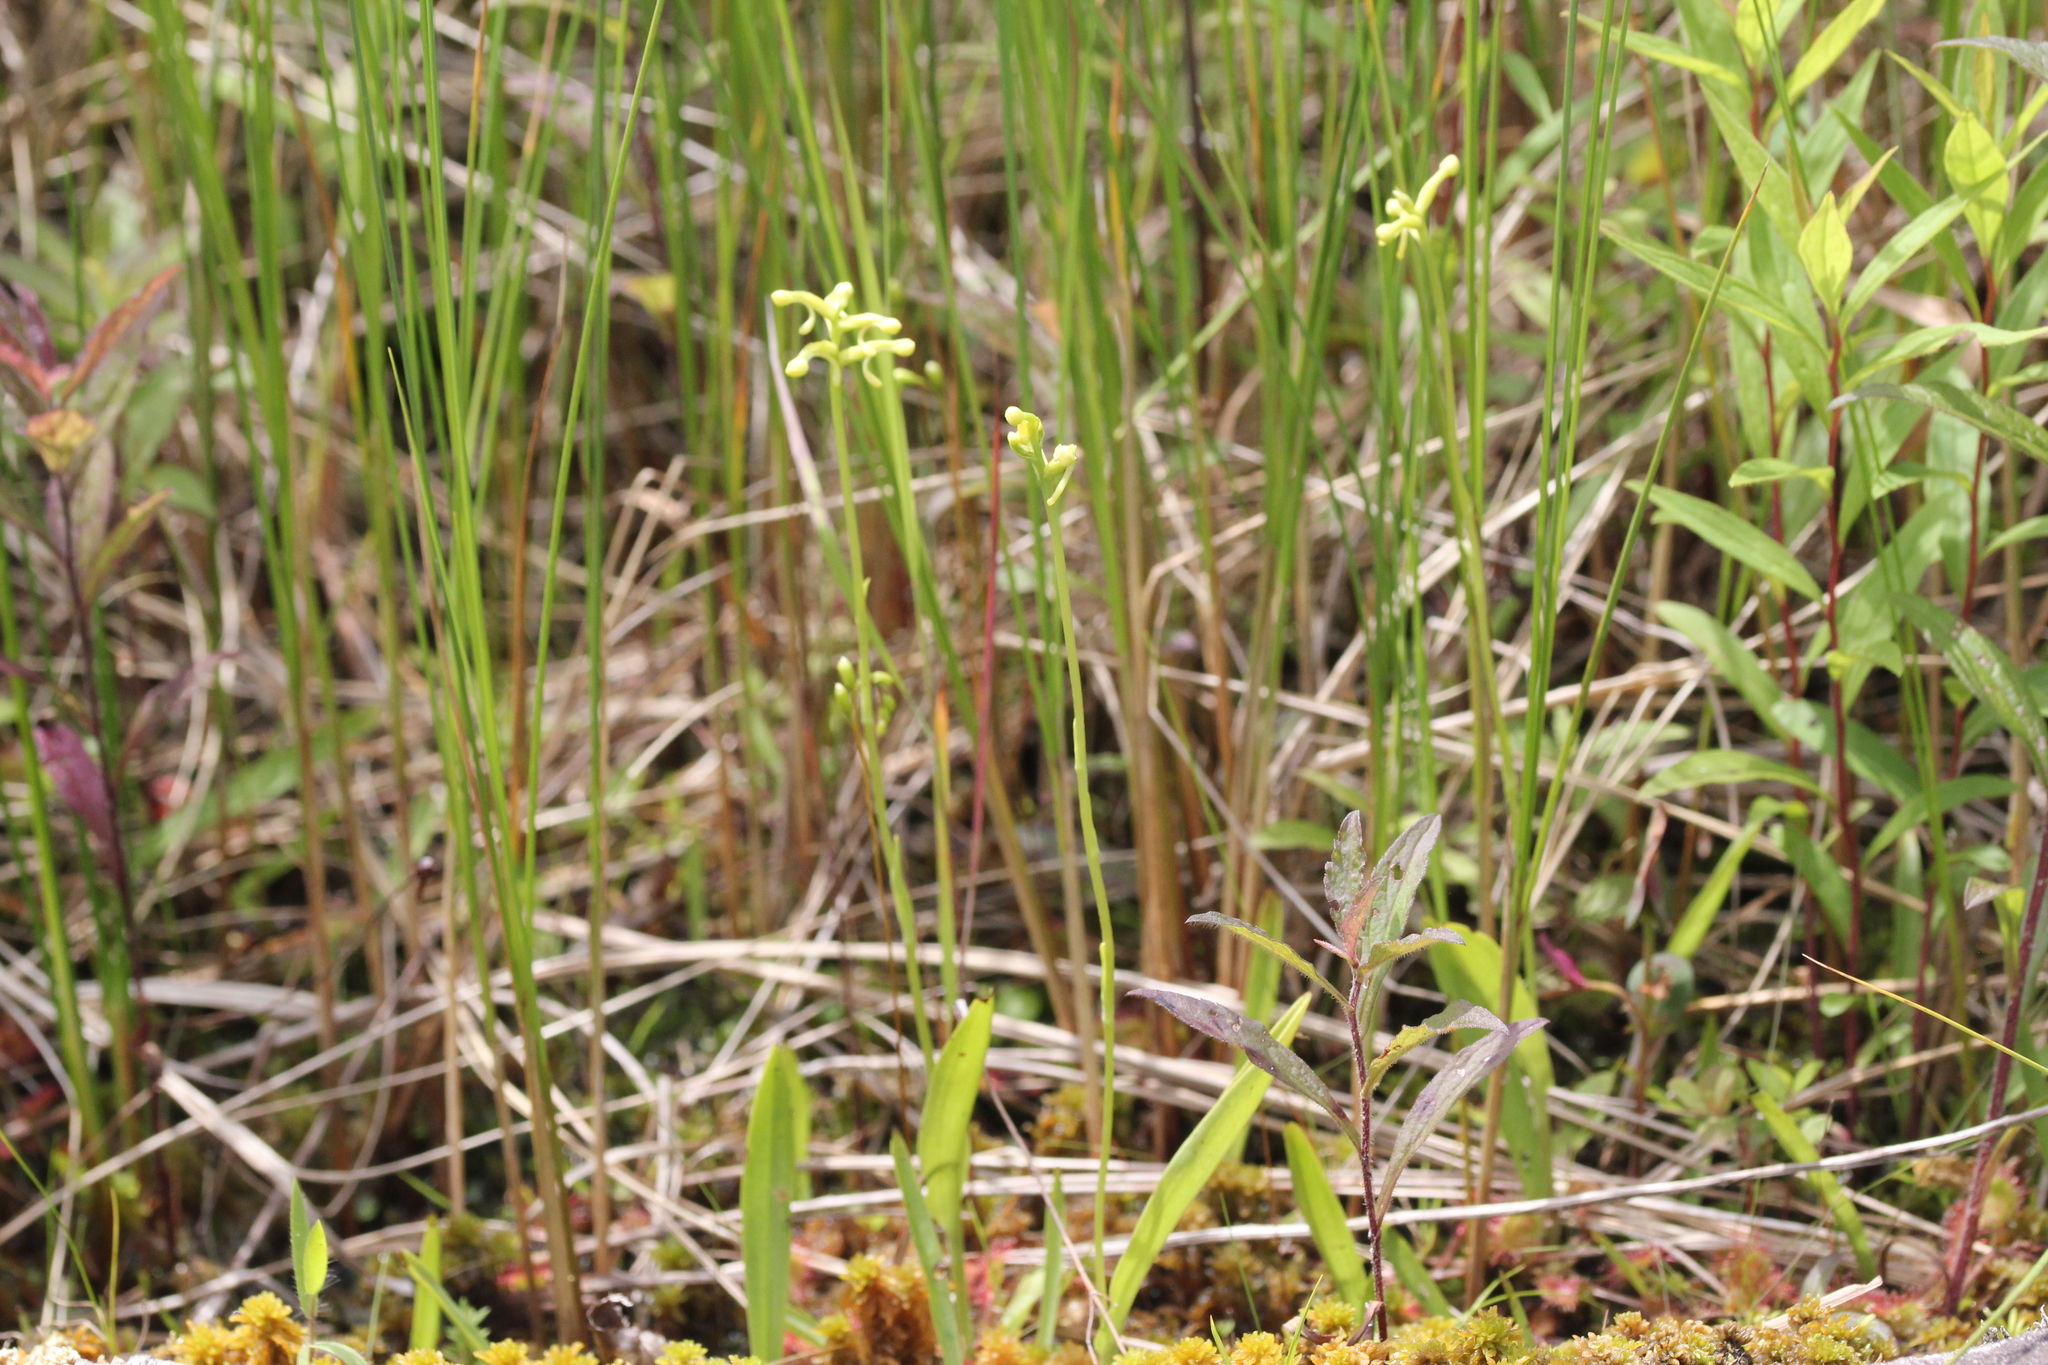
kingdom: Plantae
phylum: Tracheophyta
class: Liliopsida
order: Asparagales
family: Orchidaceae
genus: Platanthera
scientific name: Platanthera clavellata
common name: Club-spur orchid
